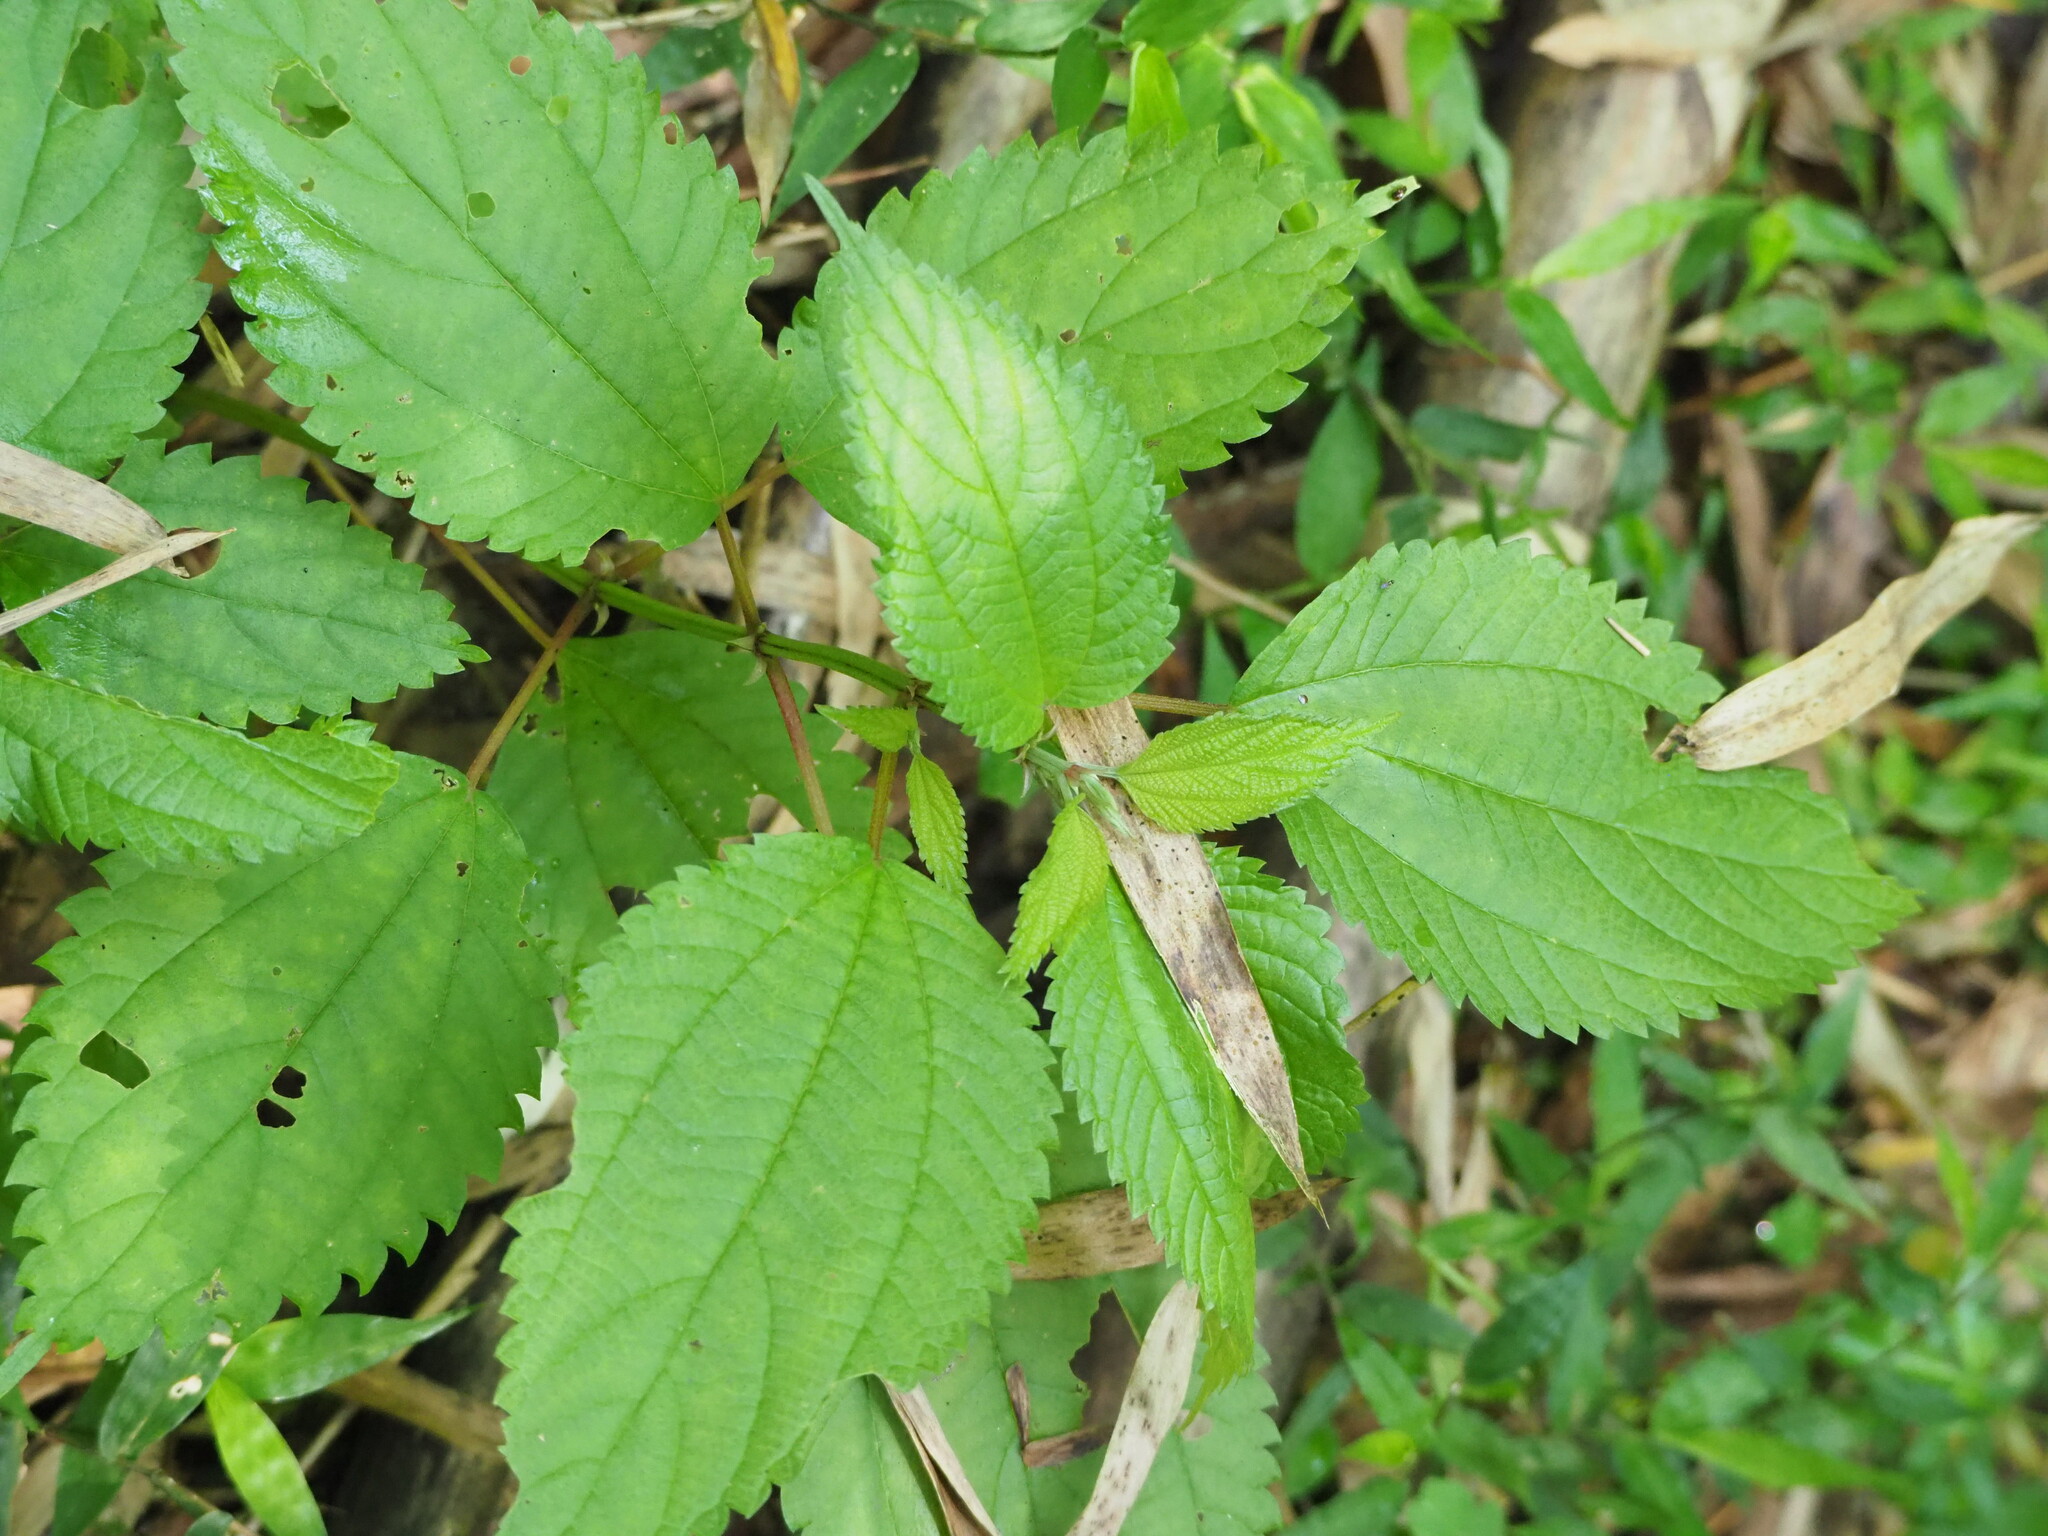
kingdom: Plantae
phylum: Tracheophyta
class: Magnoliopsida
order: Rosales
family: Urticaceae
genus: Boehmeria
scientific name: Boehmeria sieboldiana
